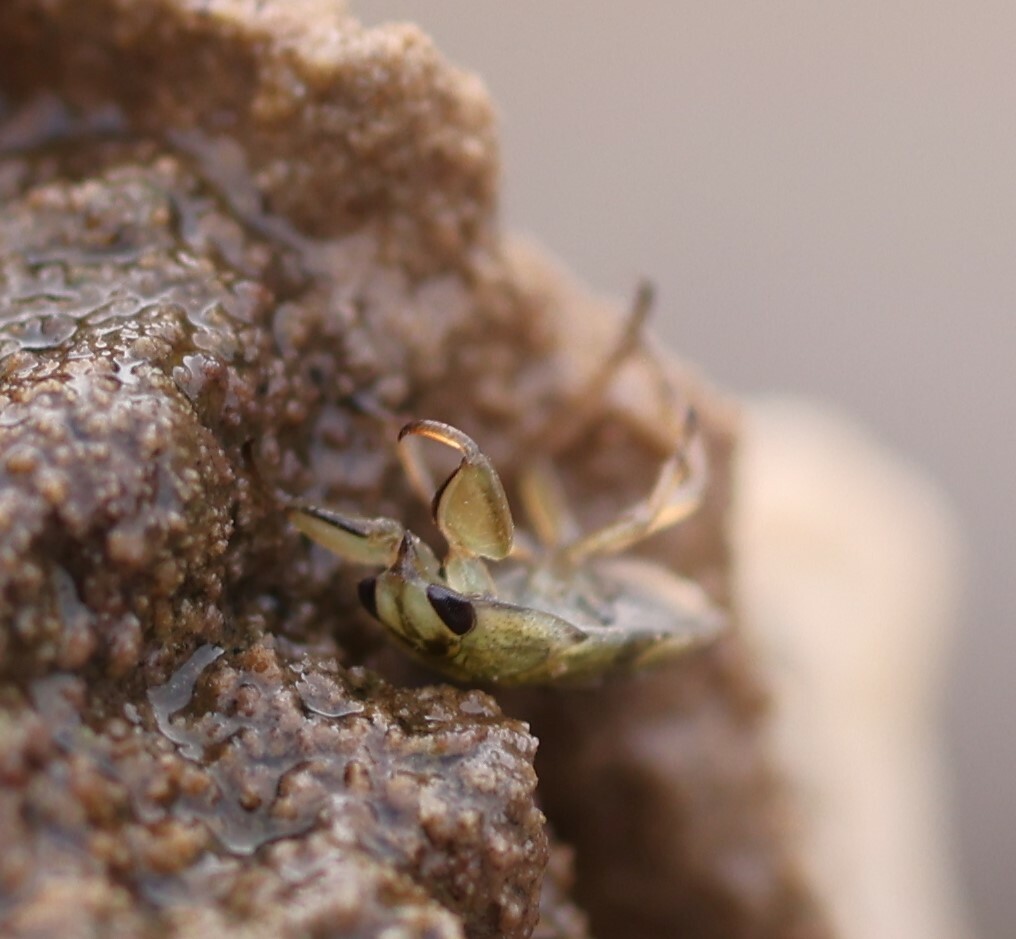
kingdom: Animalia
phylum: Arthropoda
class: Insecta
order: Hemiptera
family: Naucoridae
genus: Ambrysus
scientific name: Ambrysus funebris
